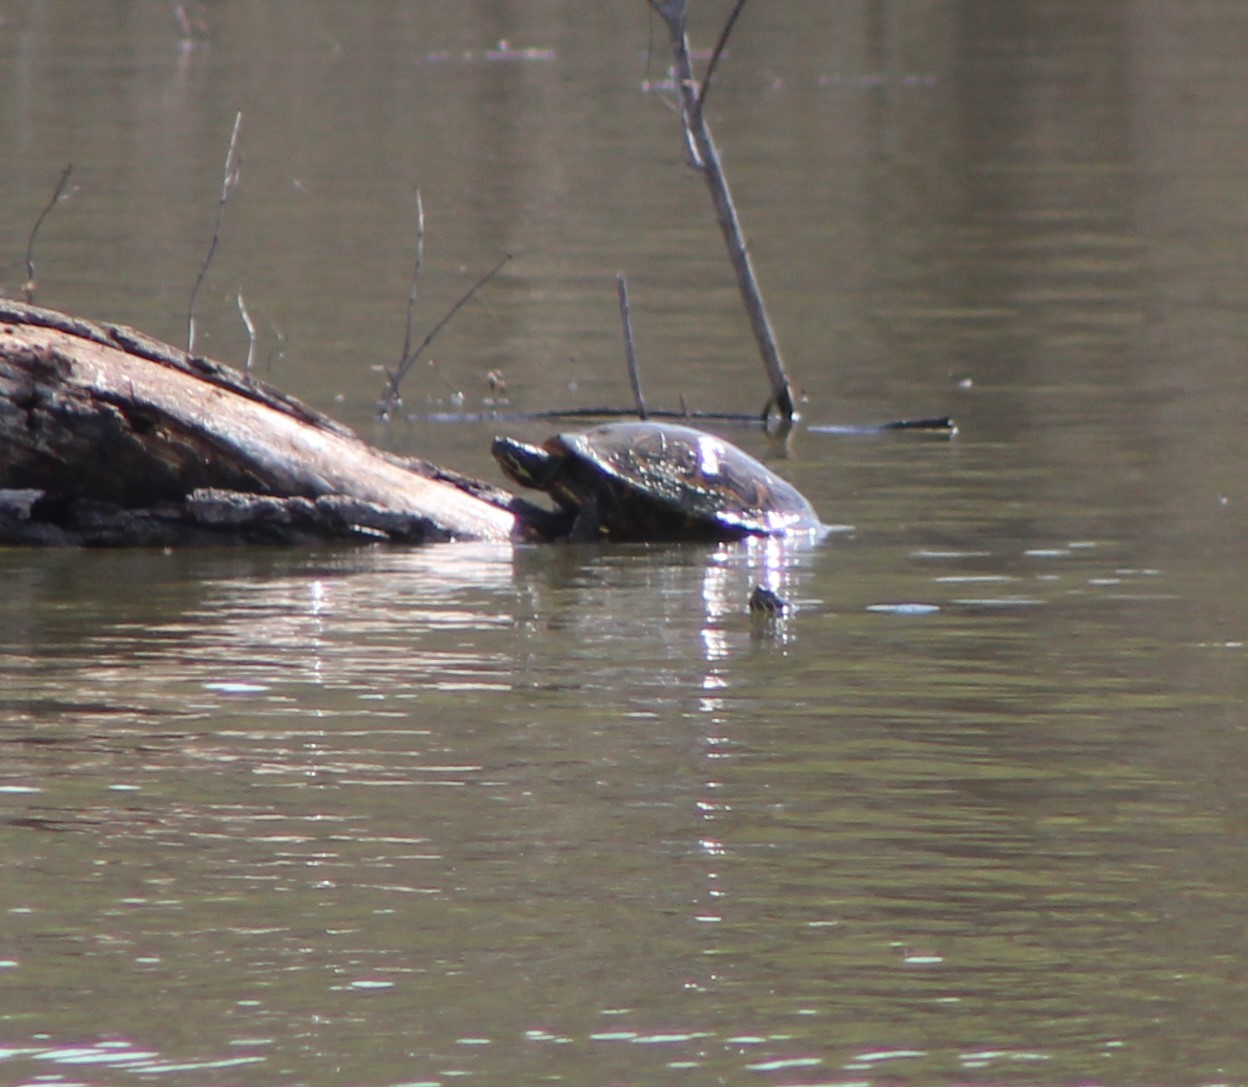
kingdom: Animalia
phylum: Chordata
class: Testudines
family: Emydidae
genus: Trachemys
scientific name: Trachemys scripta
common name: Slider
